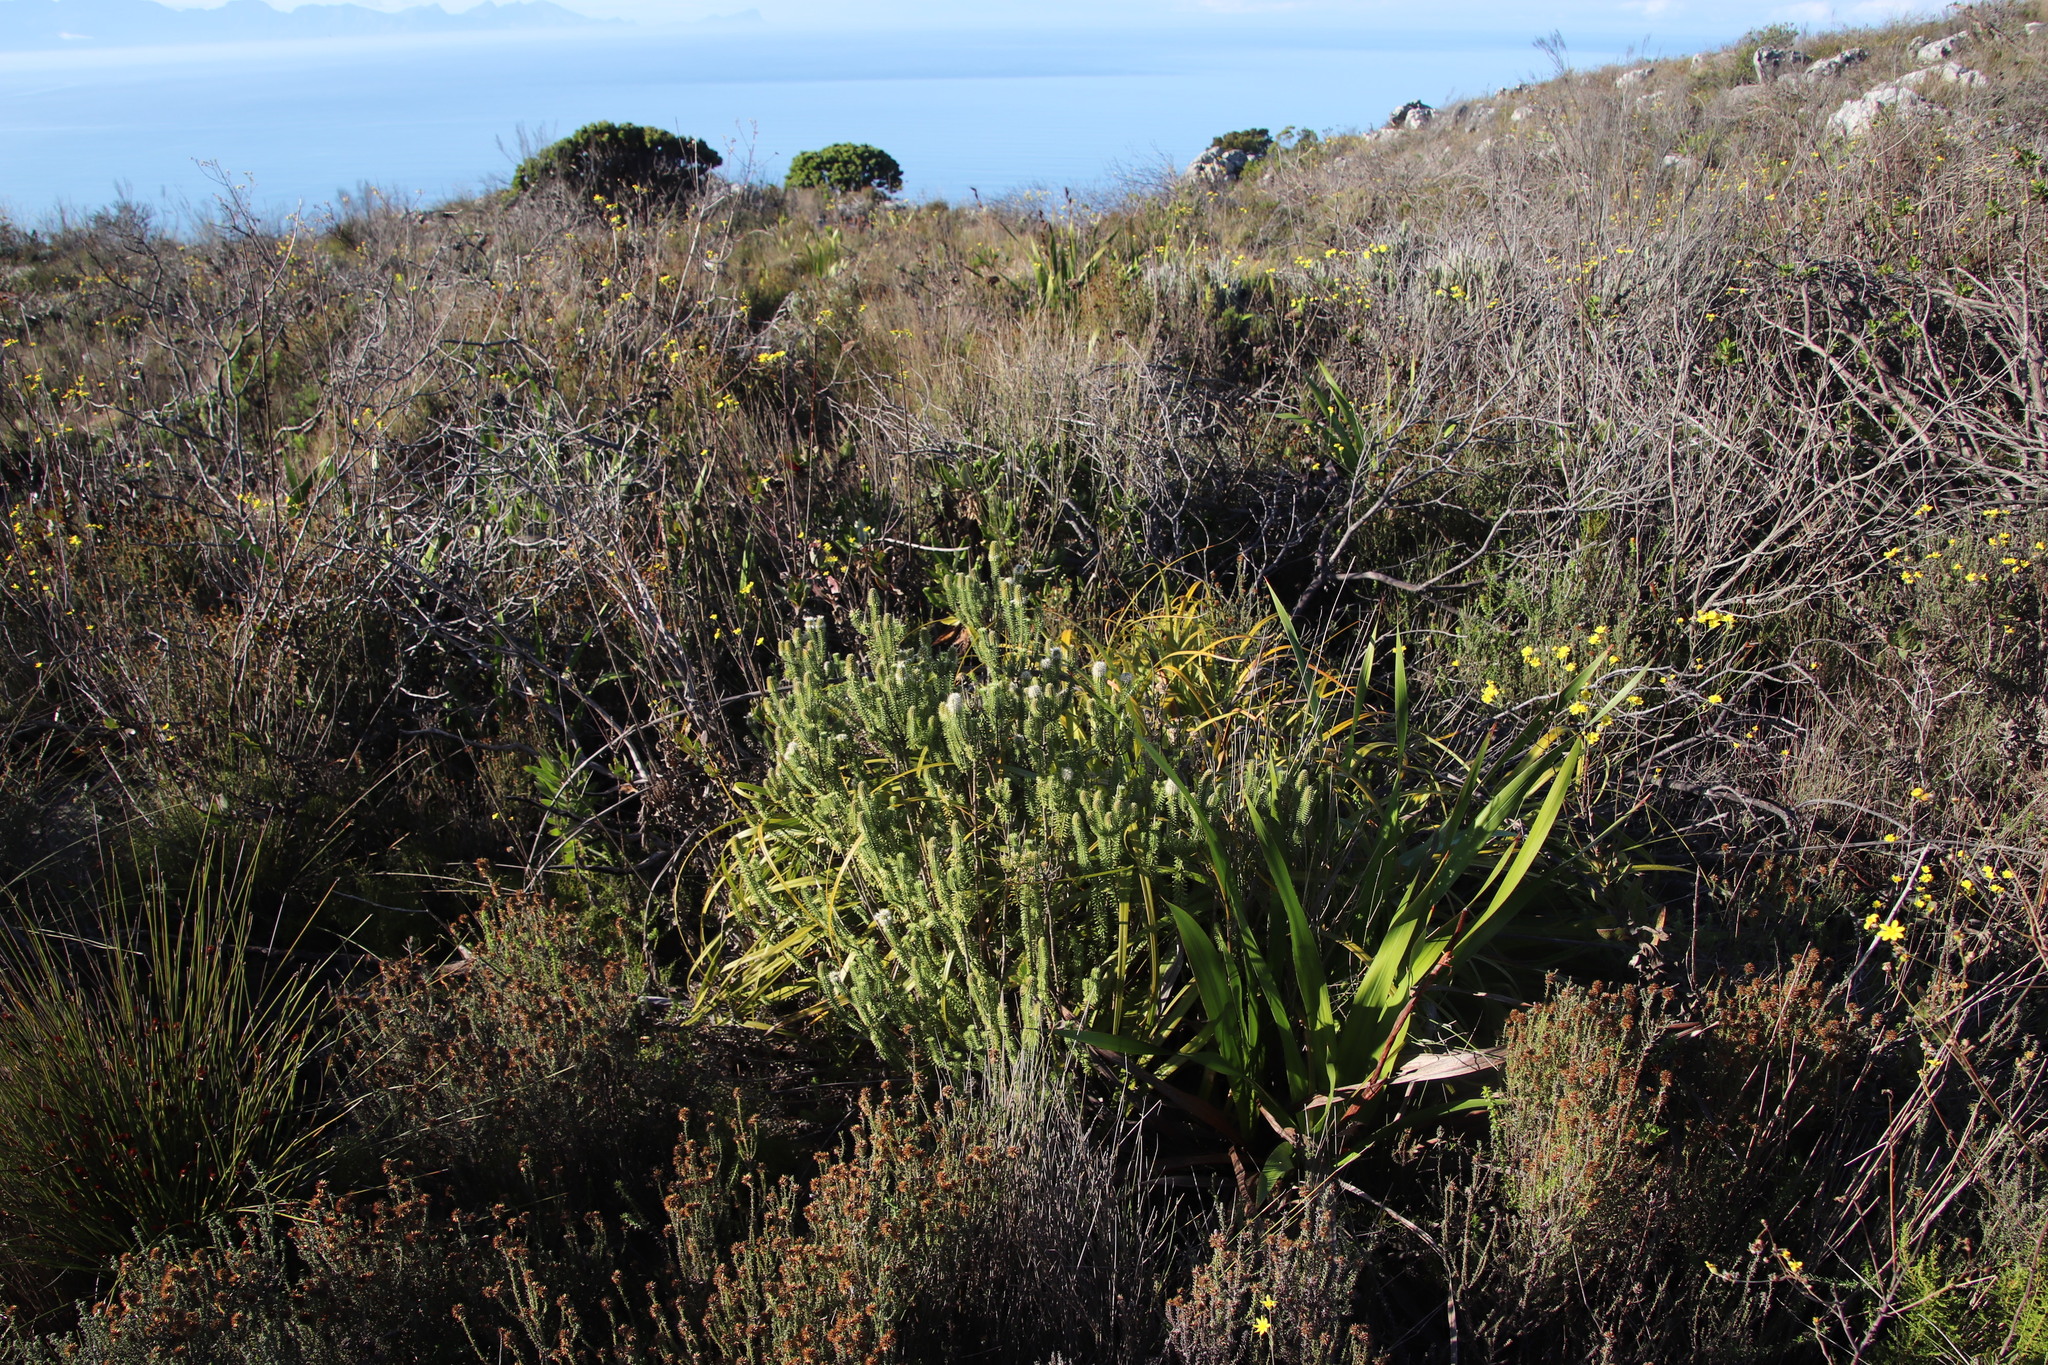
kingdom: Plantae
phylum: Tracheophyta
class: Magnoliopsida
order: Lamiales
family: Stilbaceae
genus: Stilbe
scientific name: Stilbe vestita
